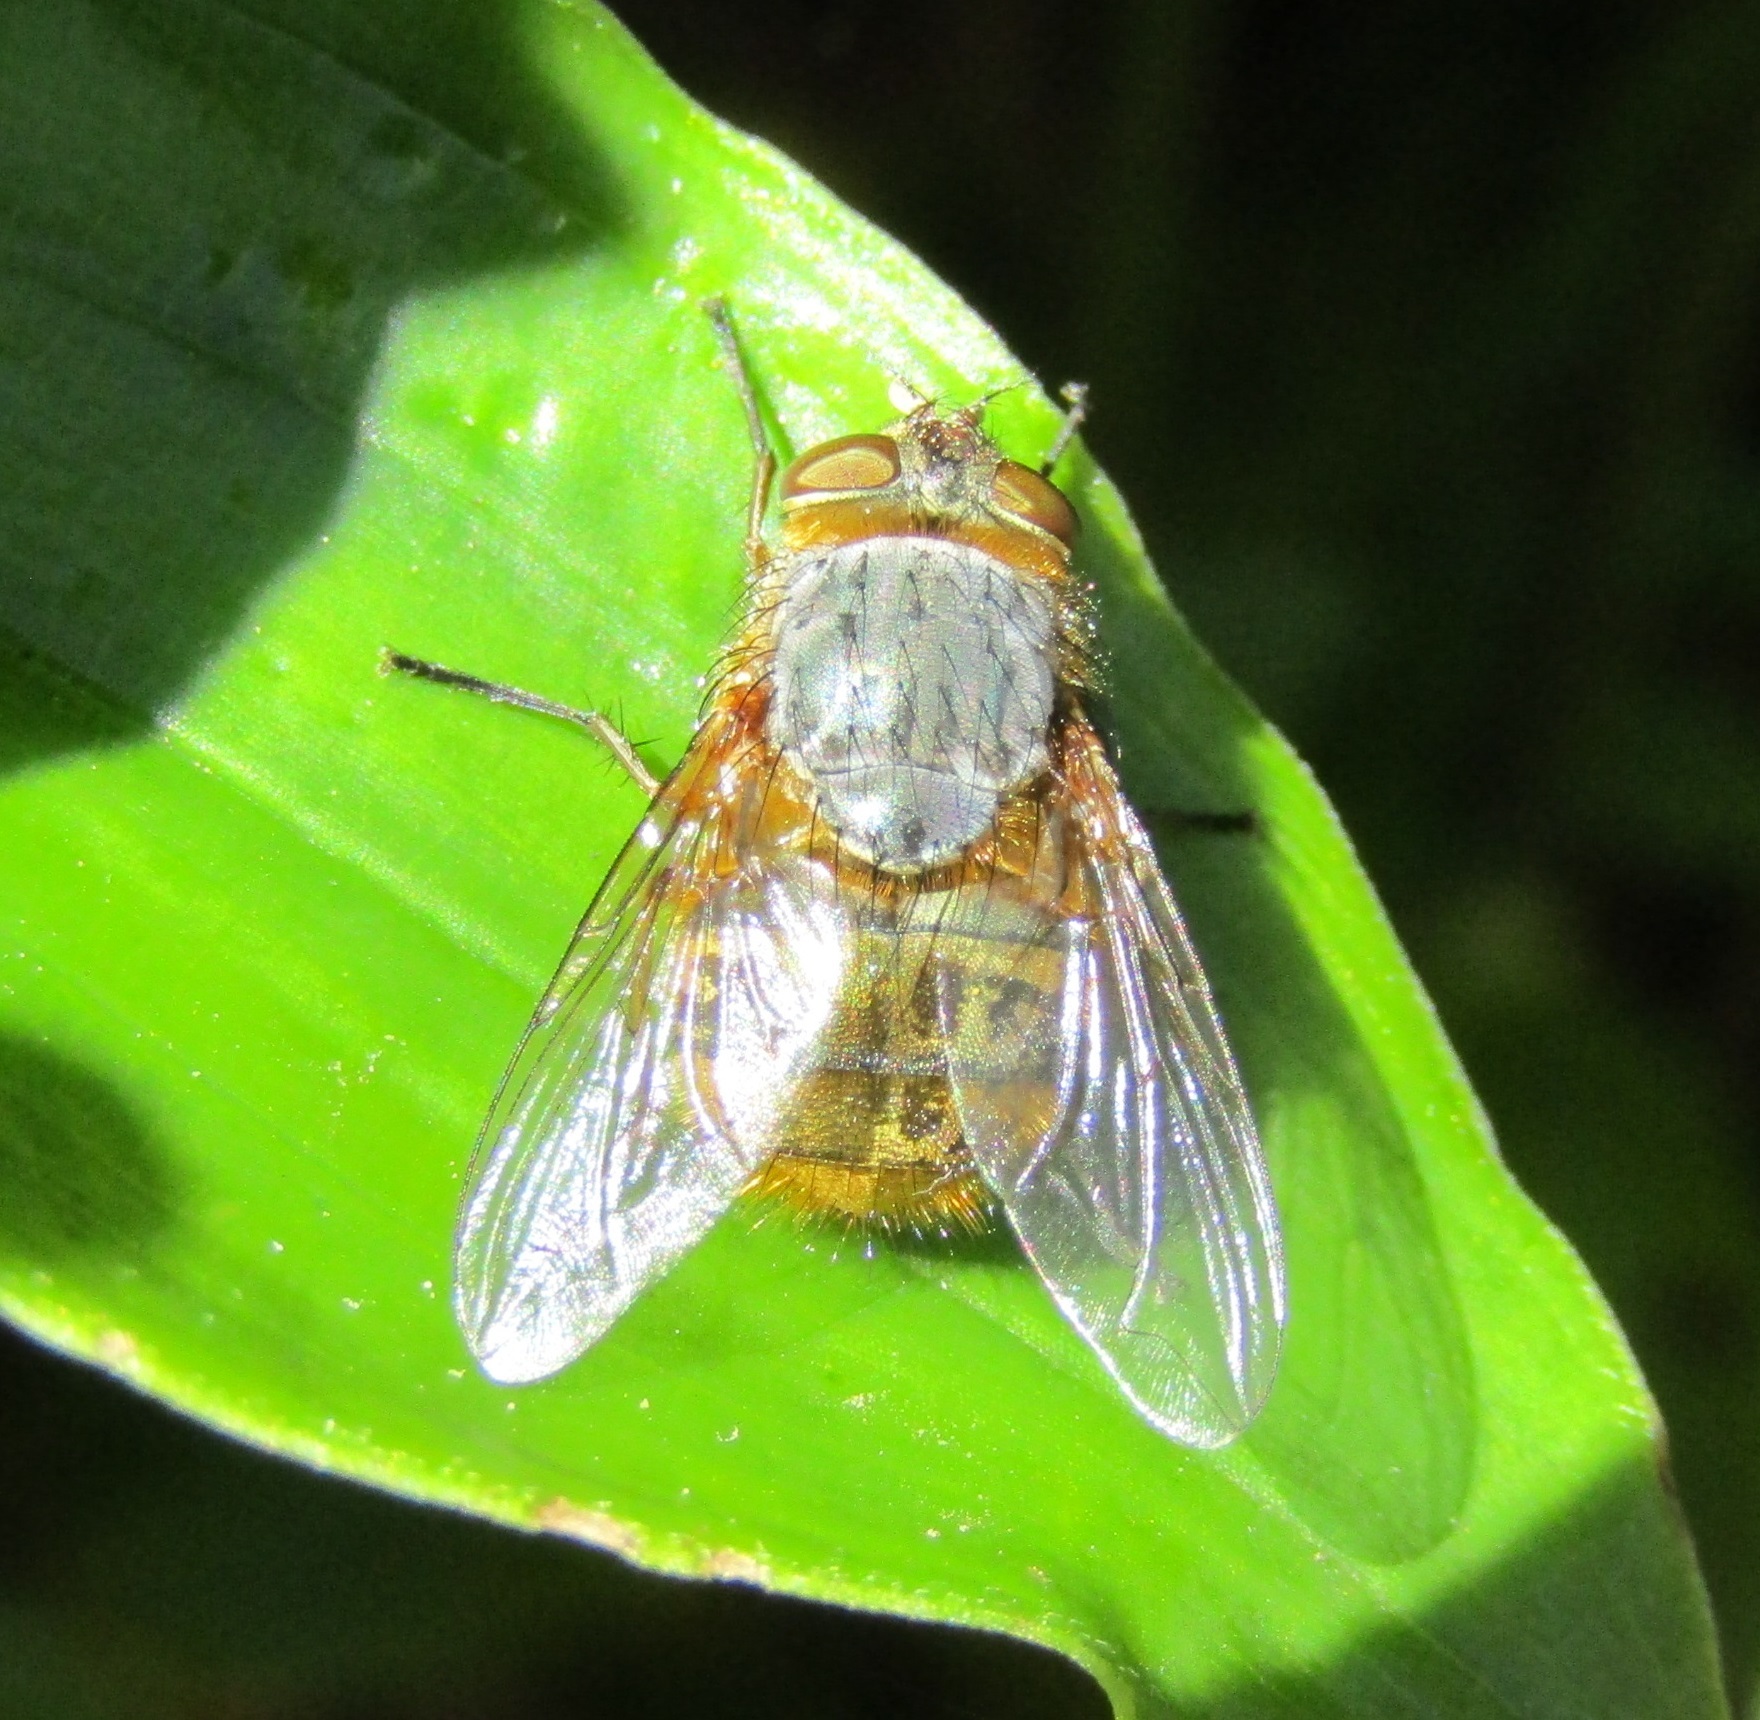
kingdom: Animalia
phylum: Arthropoda
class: Insecta
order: Diptera
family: Calliphoridae
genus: Calliphora
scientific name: Calliphora hilli
